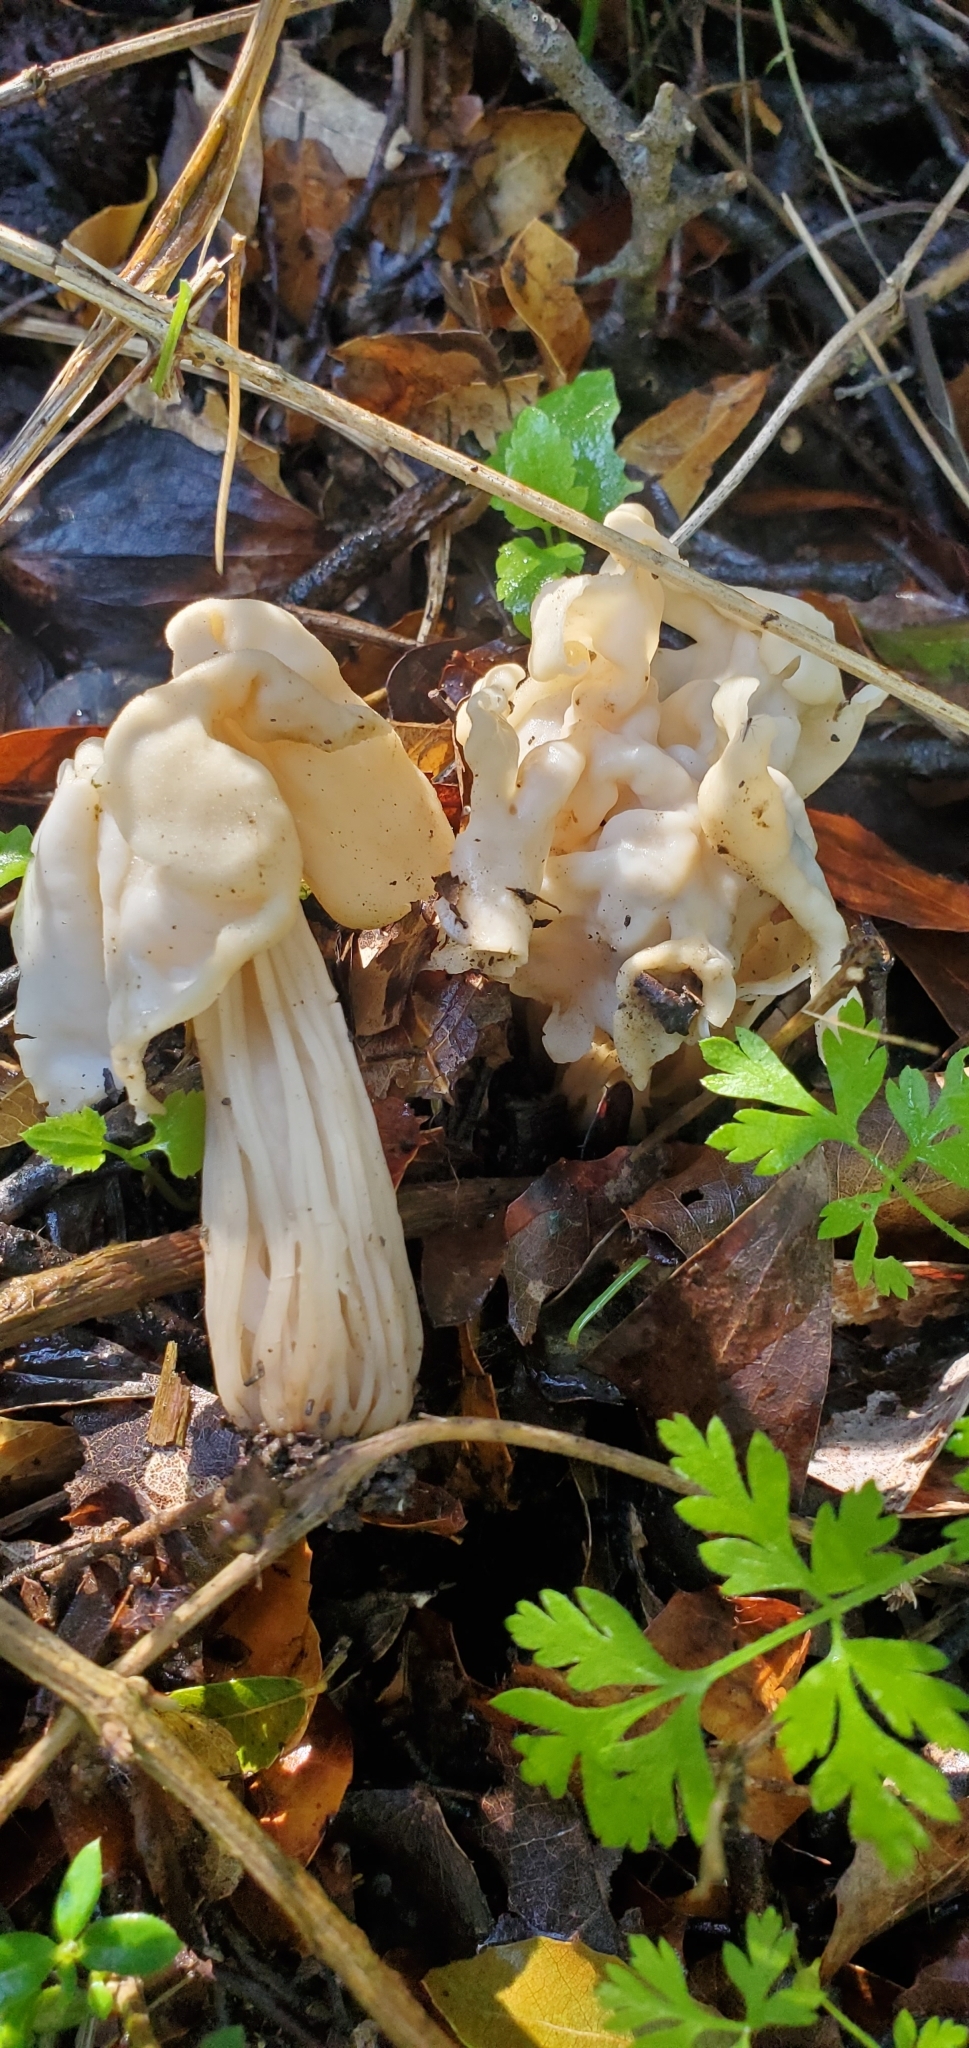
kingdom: Fungi
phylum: Ascomycota
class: Pezizomycetes
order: Pezizales
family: Helvellaceae
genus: Helvella
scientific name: Helvella crispa
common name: White saddle
